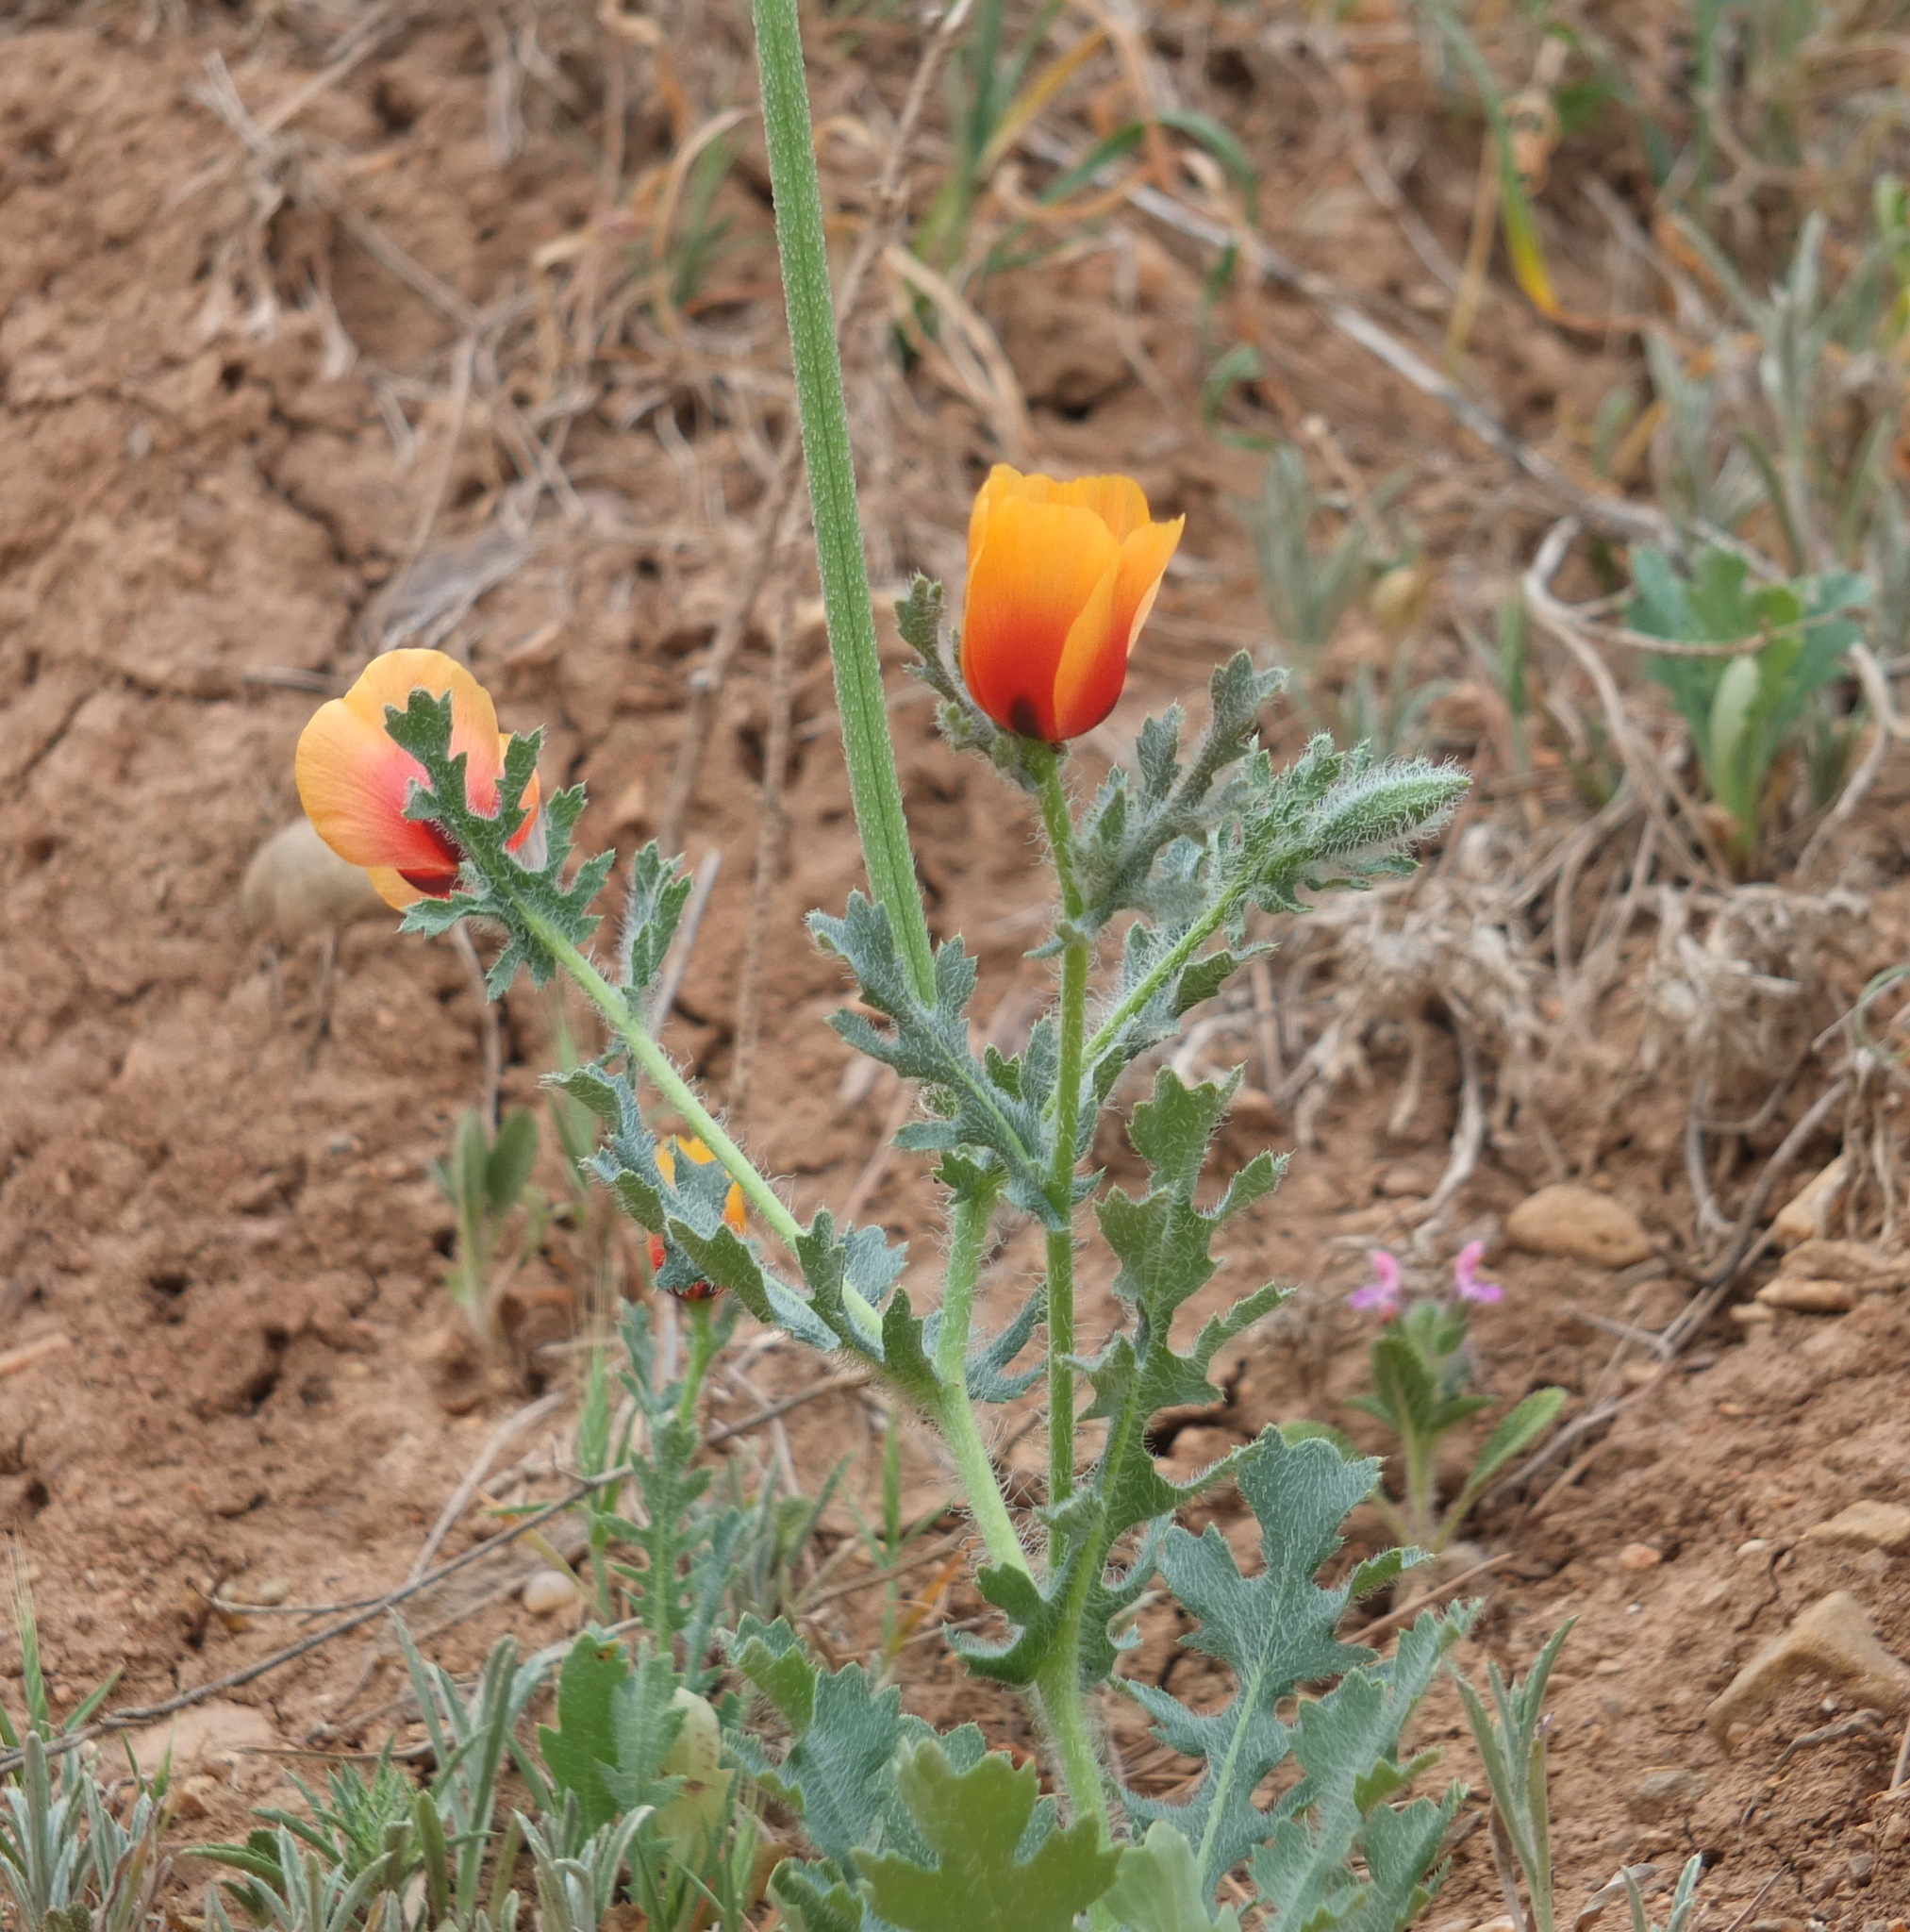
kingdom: Plantae
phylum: Tracheophyta
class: Magnoliopsida
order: Ranunculales
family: Papaveraceae
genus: Glaucium
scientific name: Glaucium corniculatum
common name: Red horned-poppy
